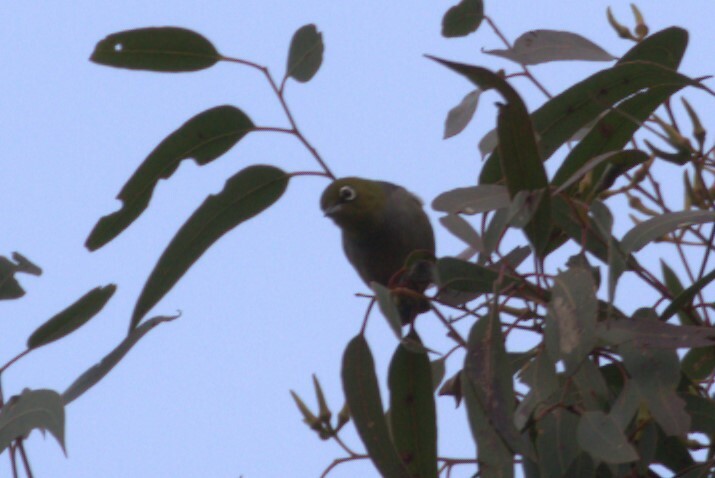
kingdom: Animalia
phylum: Chordata
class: Aves
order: Passeriformes
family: Zosteropidae
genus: Zosterops
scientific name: Zosterops lateralis
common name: Silvereye
